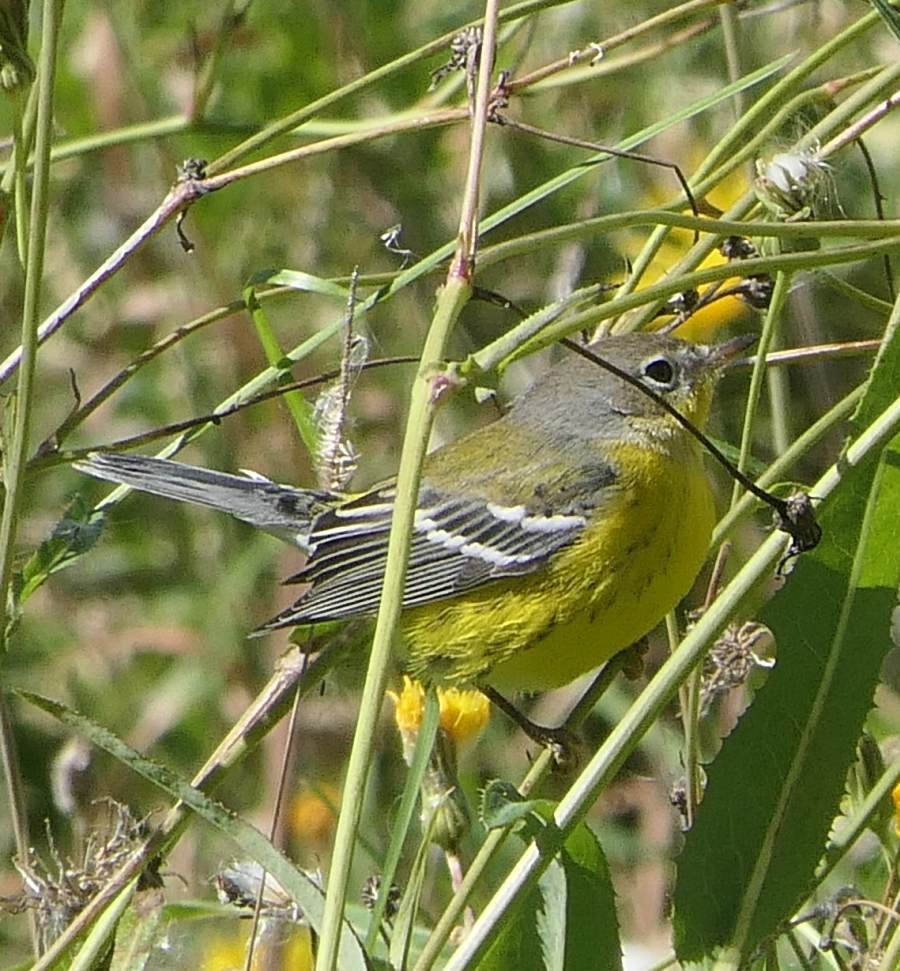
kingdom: Animalia
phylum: Chordata
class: Aves
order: Passeriformes
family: Parulidae
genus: Setophaga
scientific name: Setophaga magnolia
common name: Magnolia warbler
